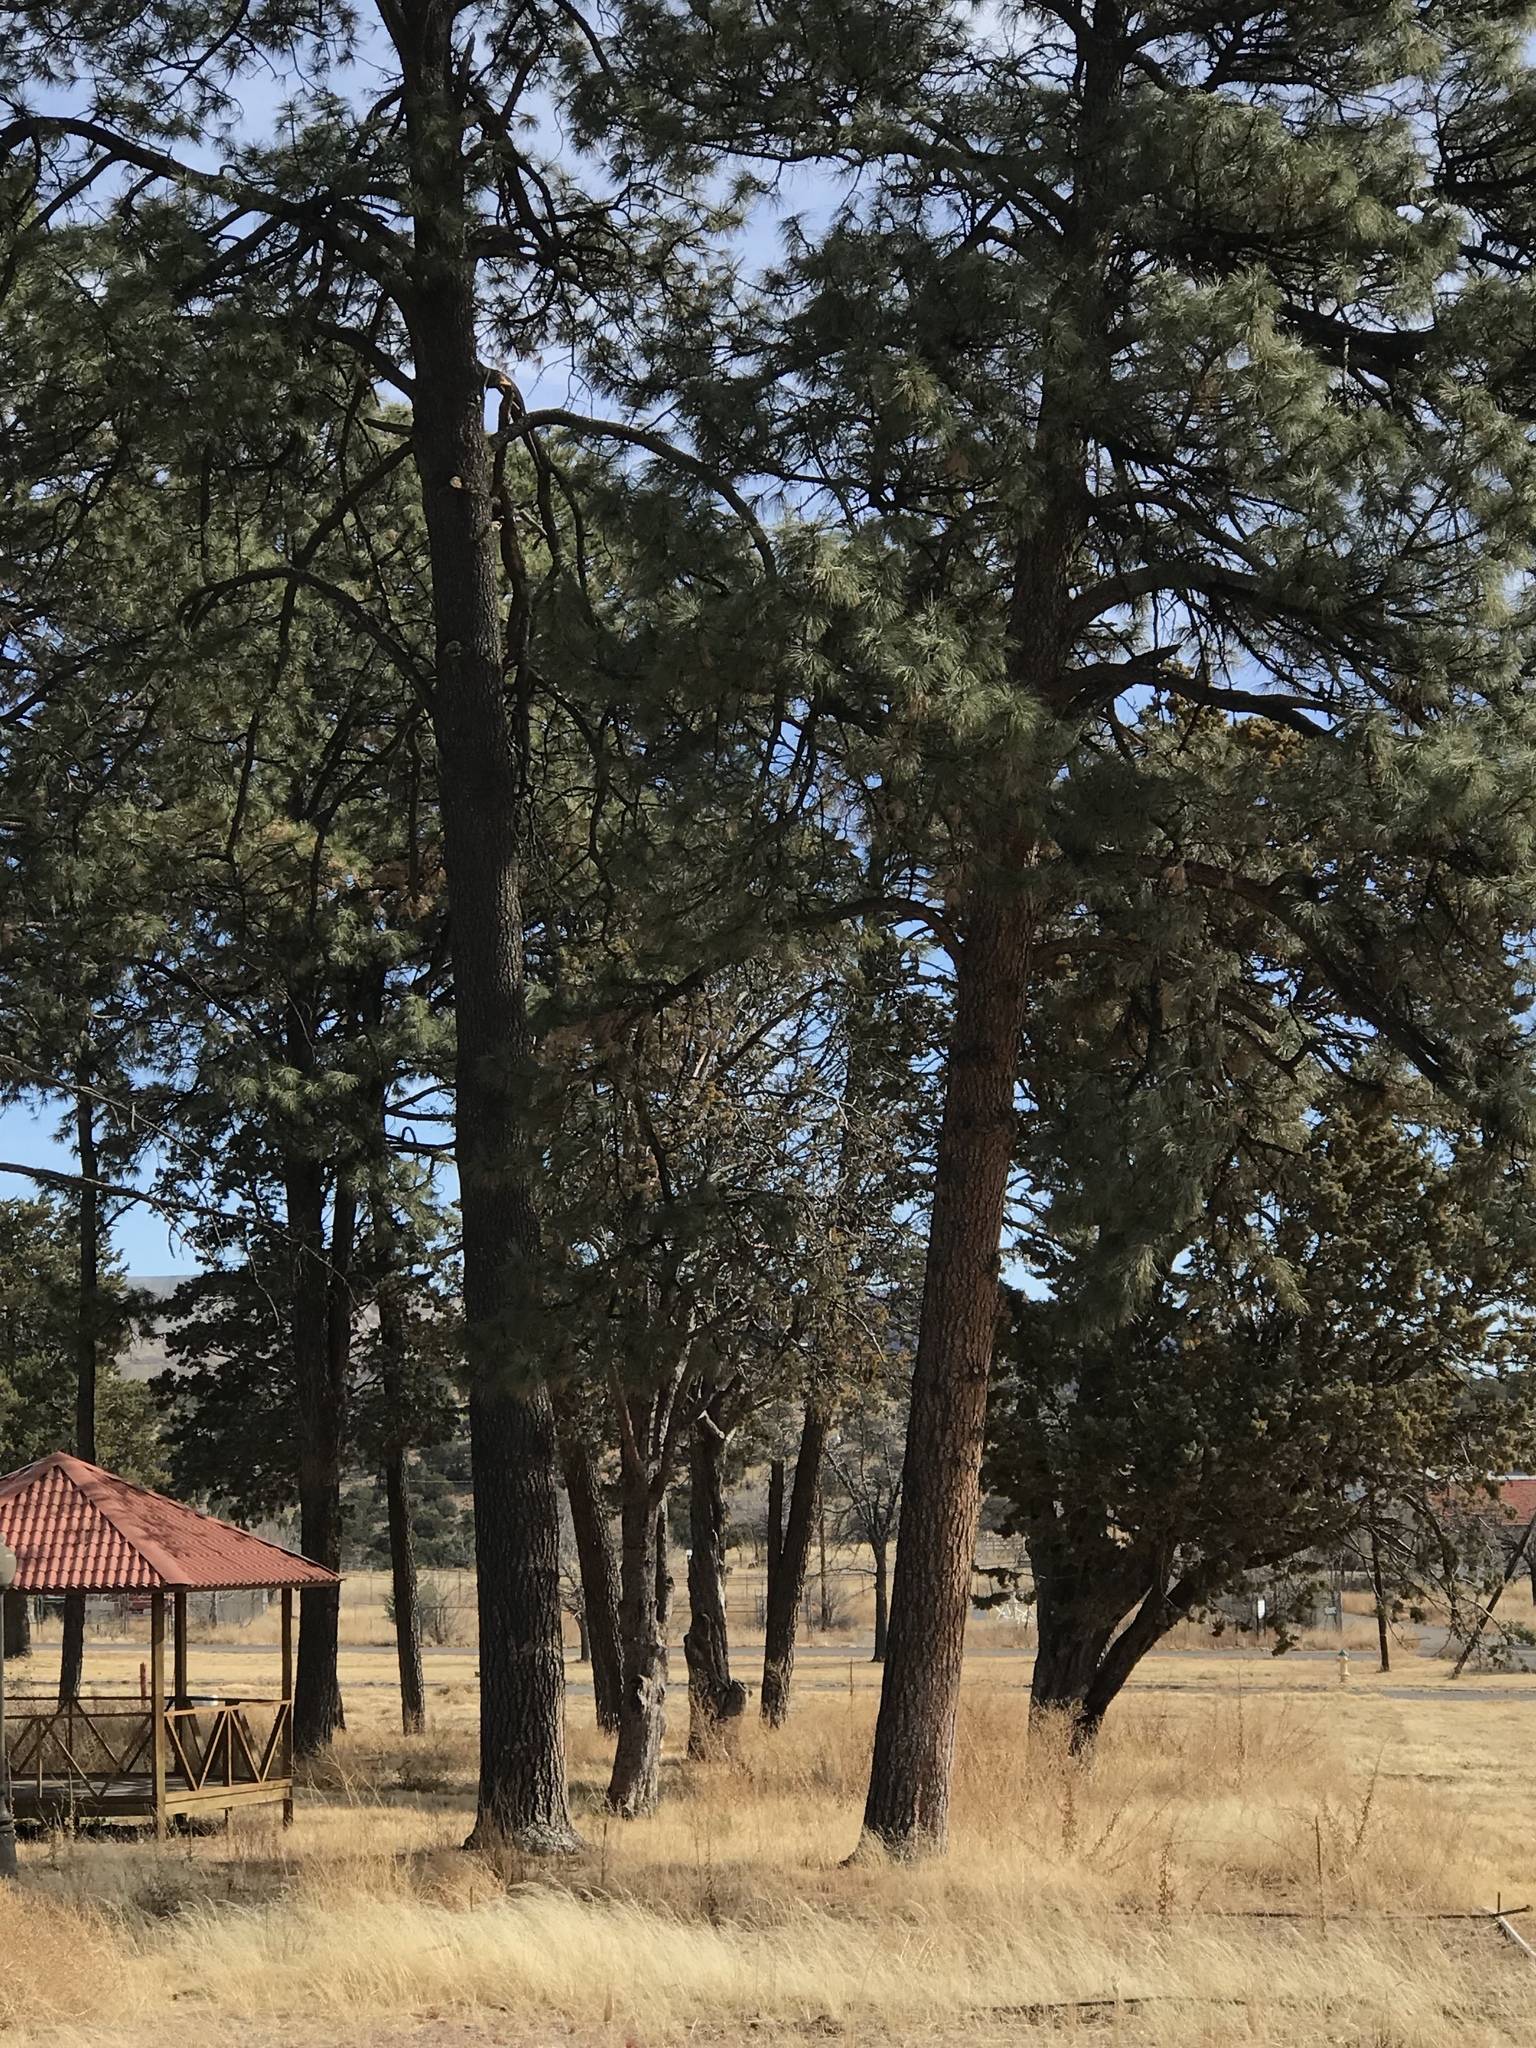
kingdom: Plantae
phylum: Tracheophyta
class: Pinopsida
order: Pinales
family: Pinaceae
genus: Pinus
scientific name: Pinus ponderosa
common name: Western yellow-pine
